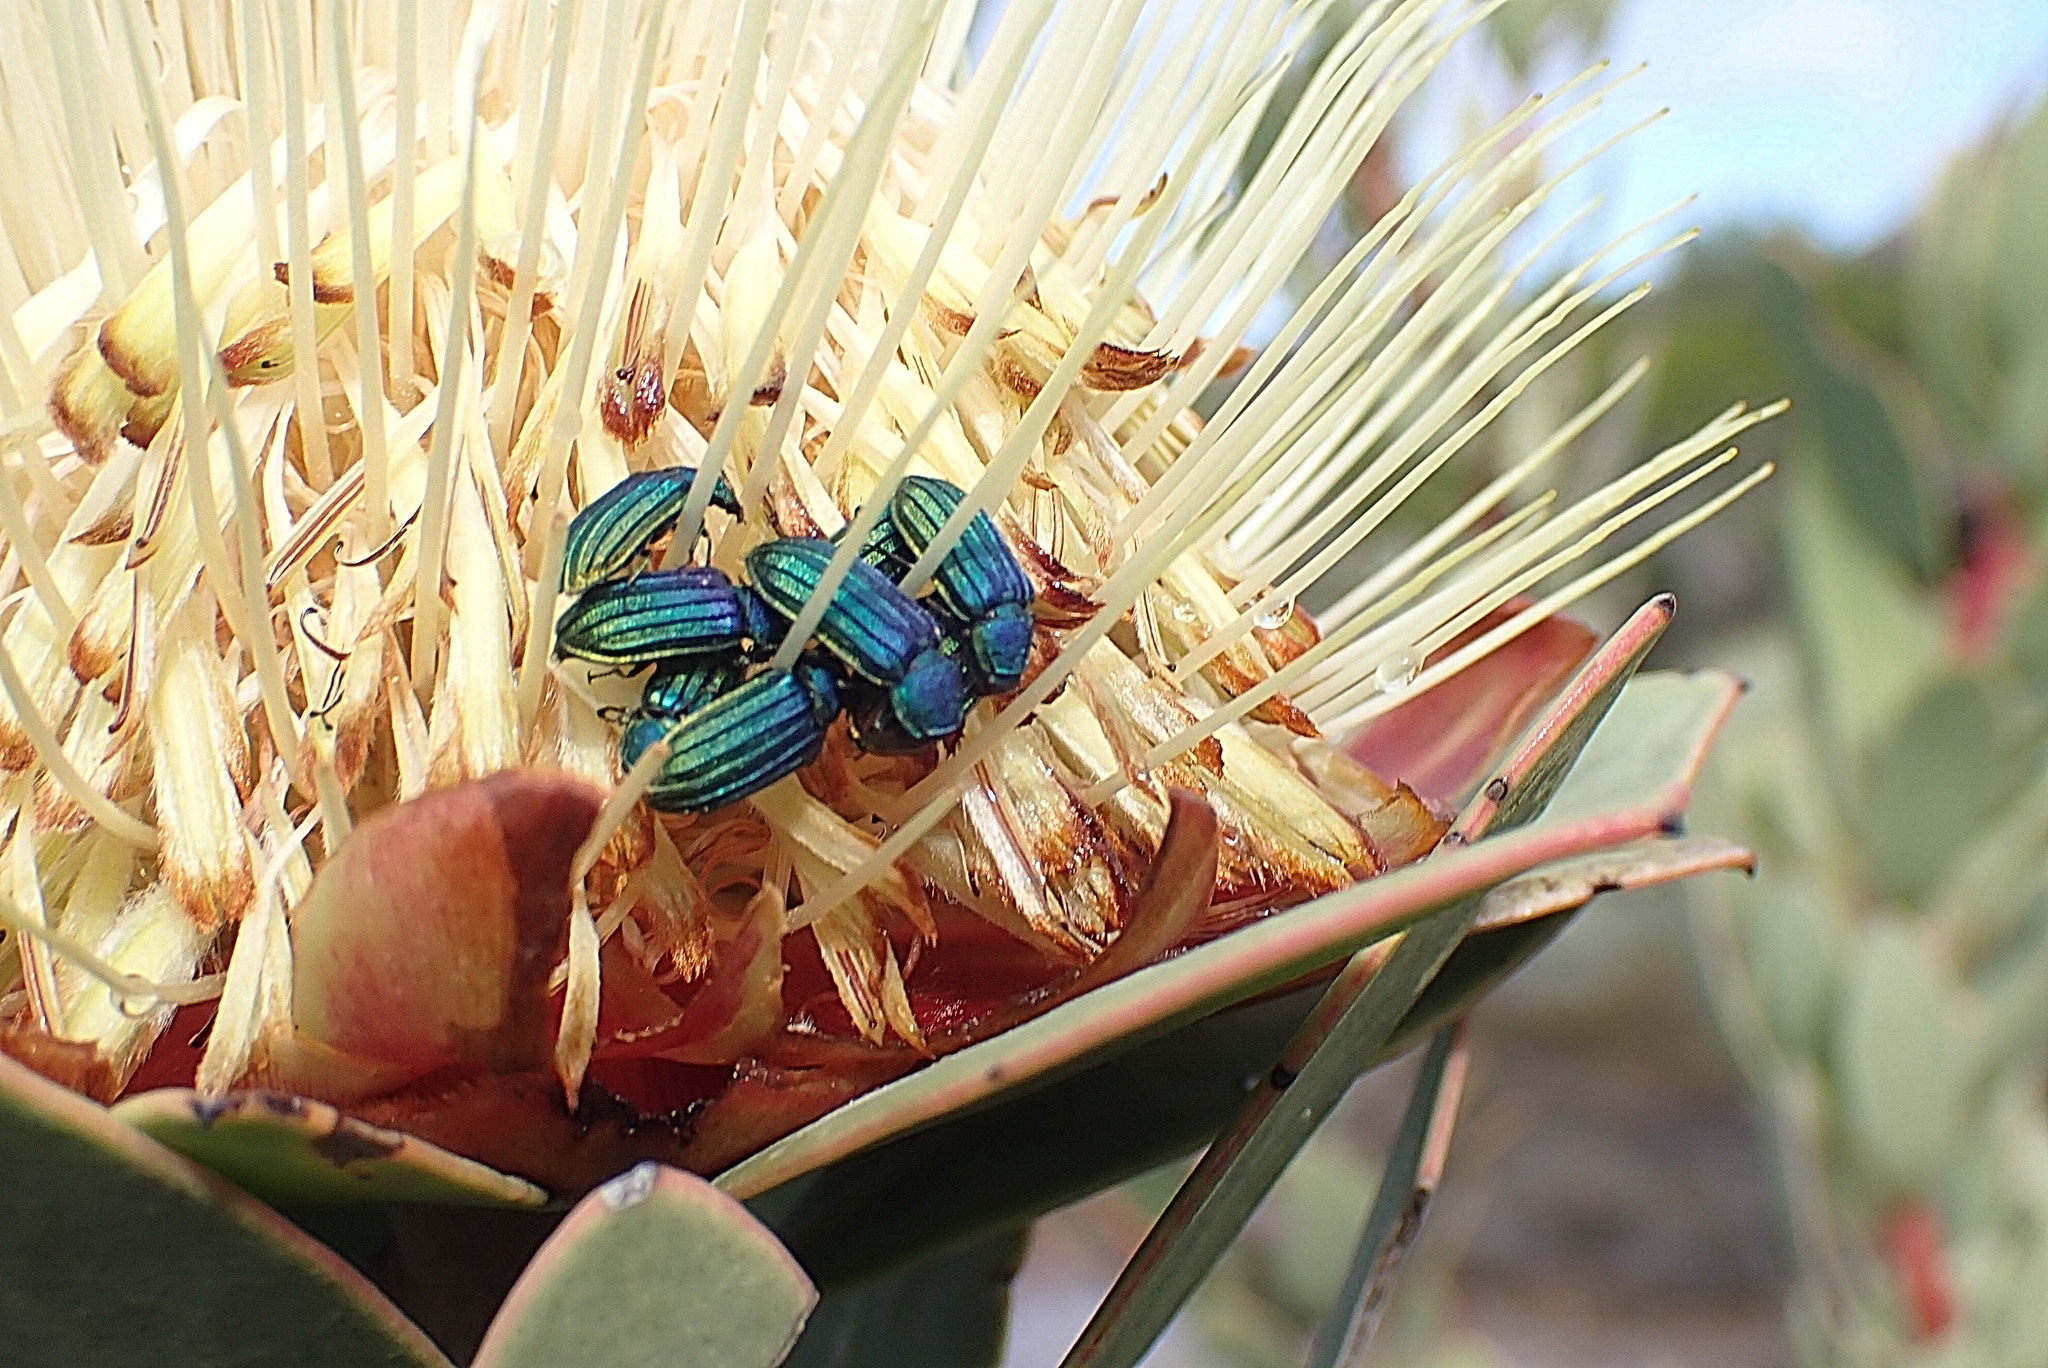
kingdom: Animalia
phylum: Arthropoda
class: Insecta
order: Coleoptera
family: Melyridae
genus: Melyris
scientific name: Melyris
